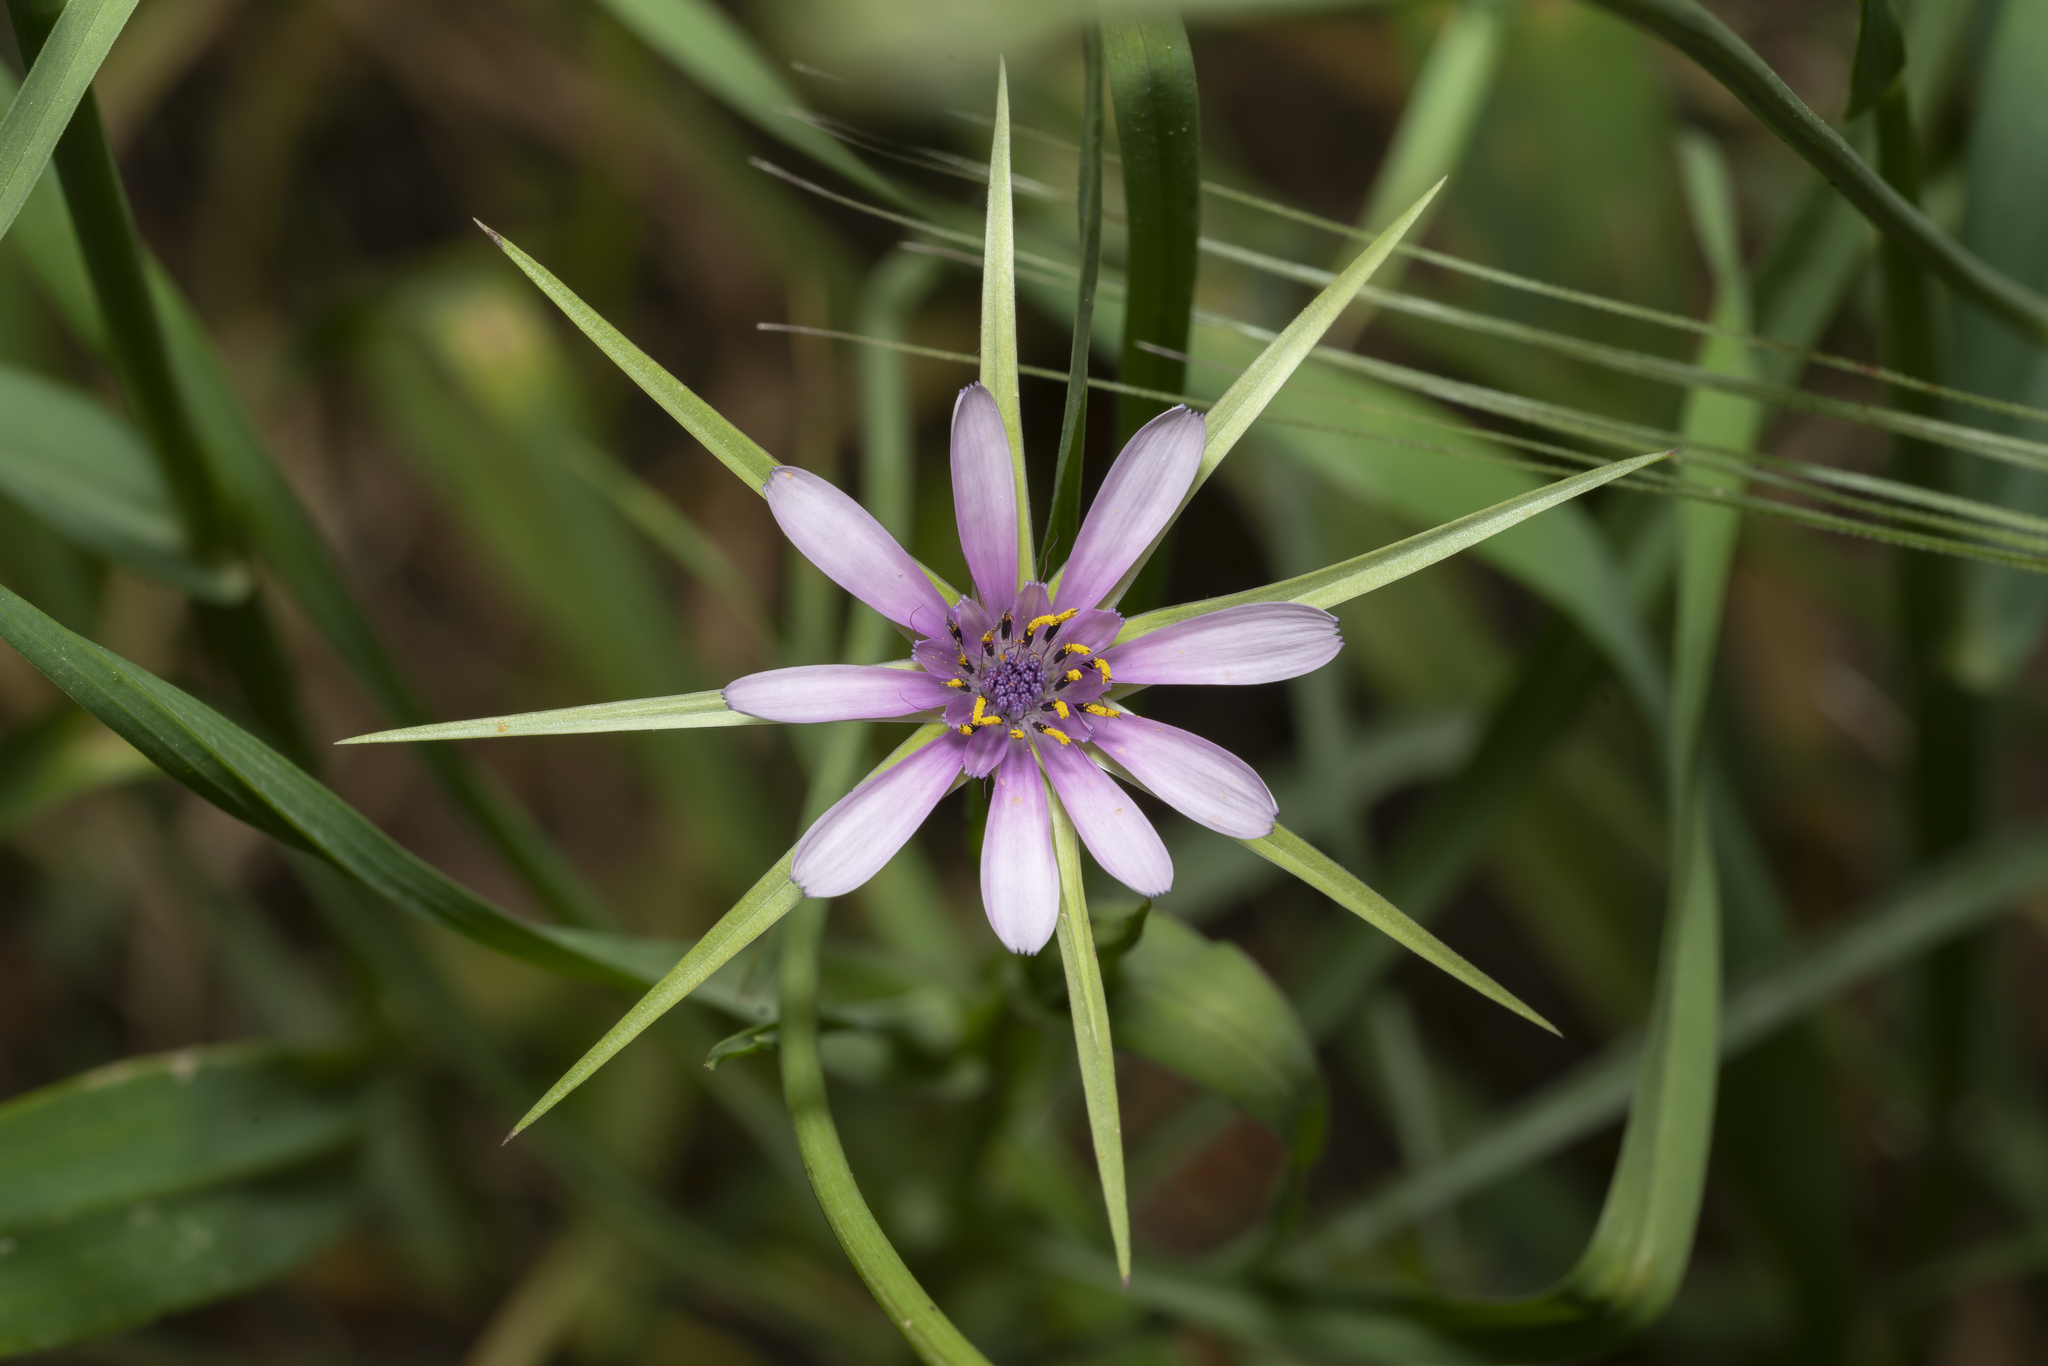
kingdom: Plantae
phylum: Tracheophyta
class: Magnoliopsida
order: Asterales
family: Asteraceae
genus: Geropogon
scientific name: Geropogon hybridus
